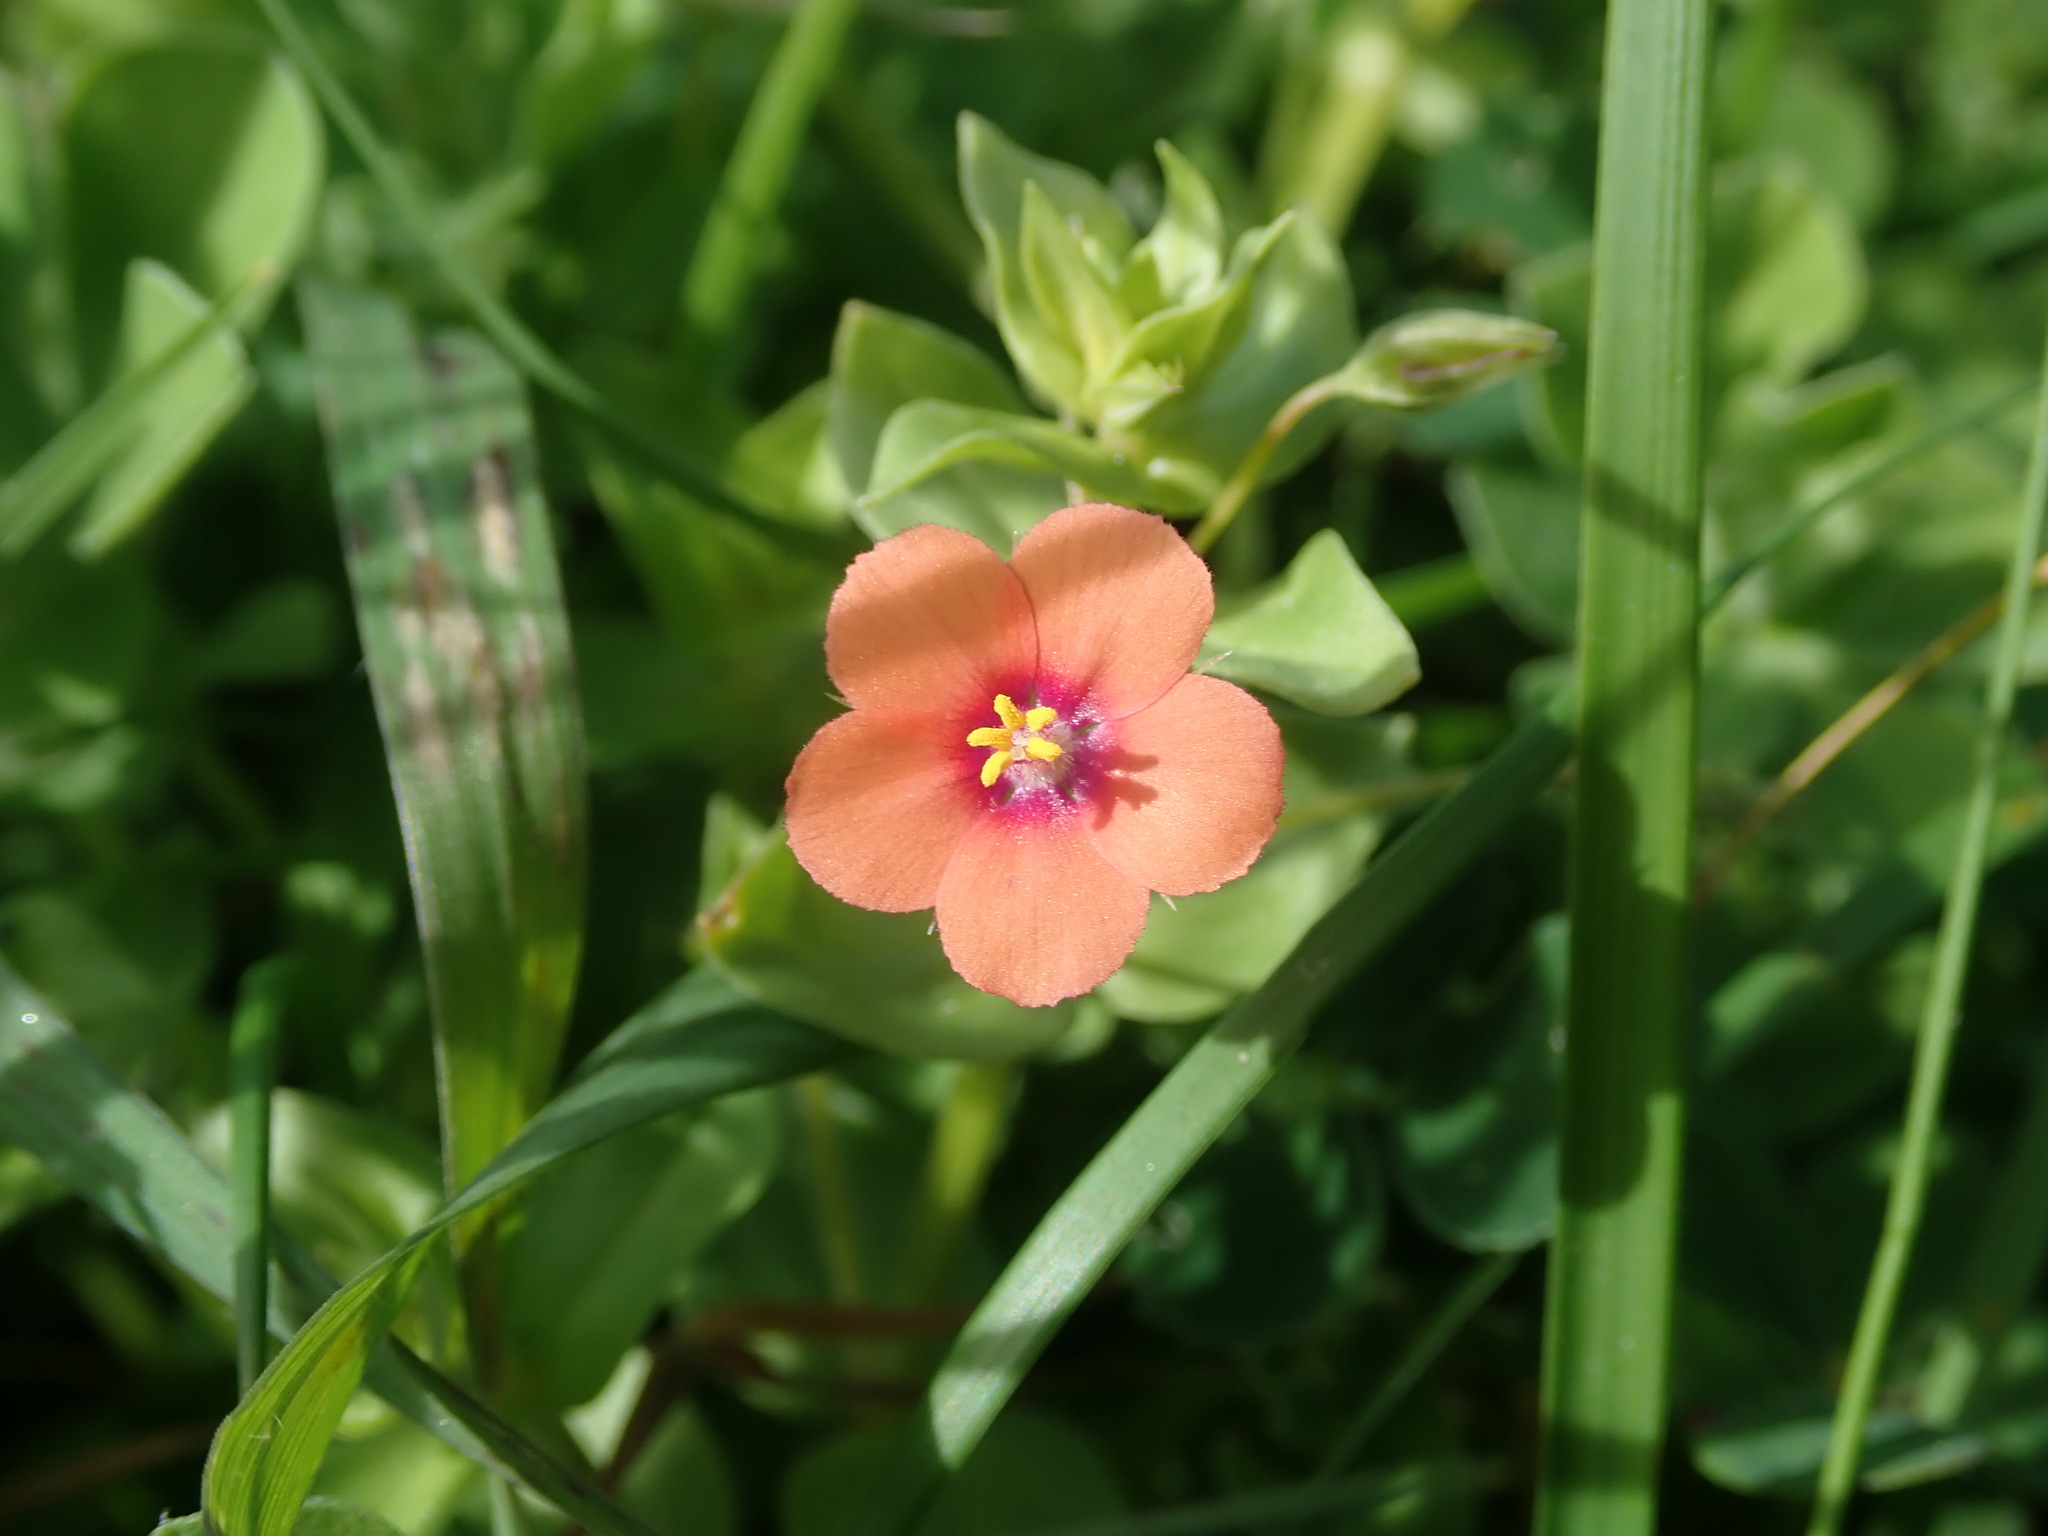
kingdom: Plantae
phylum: Tracheophyta
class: Magnoliopsida
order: Ericales
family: Primulaceae
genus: Lysimachia
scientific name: Lysimachia arvensis
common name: Scarlet pimpernel
